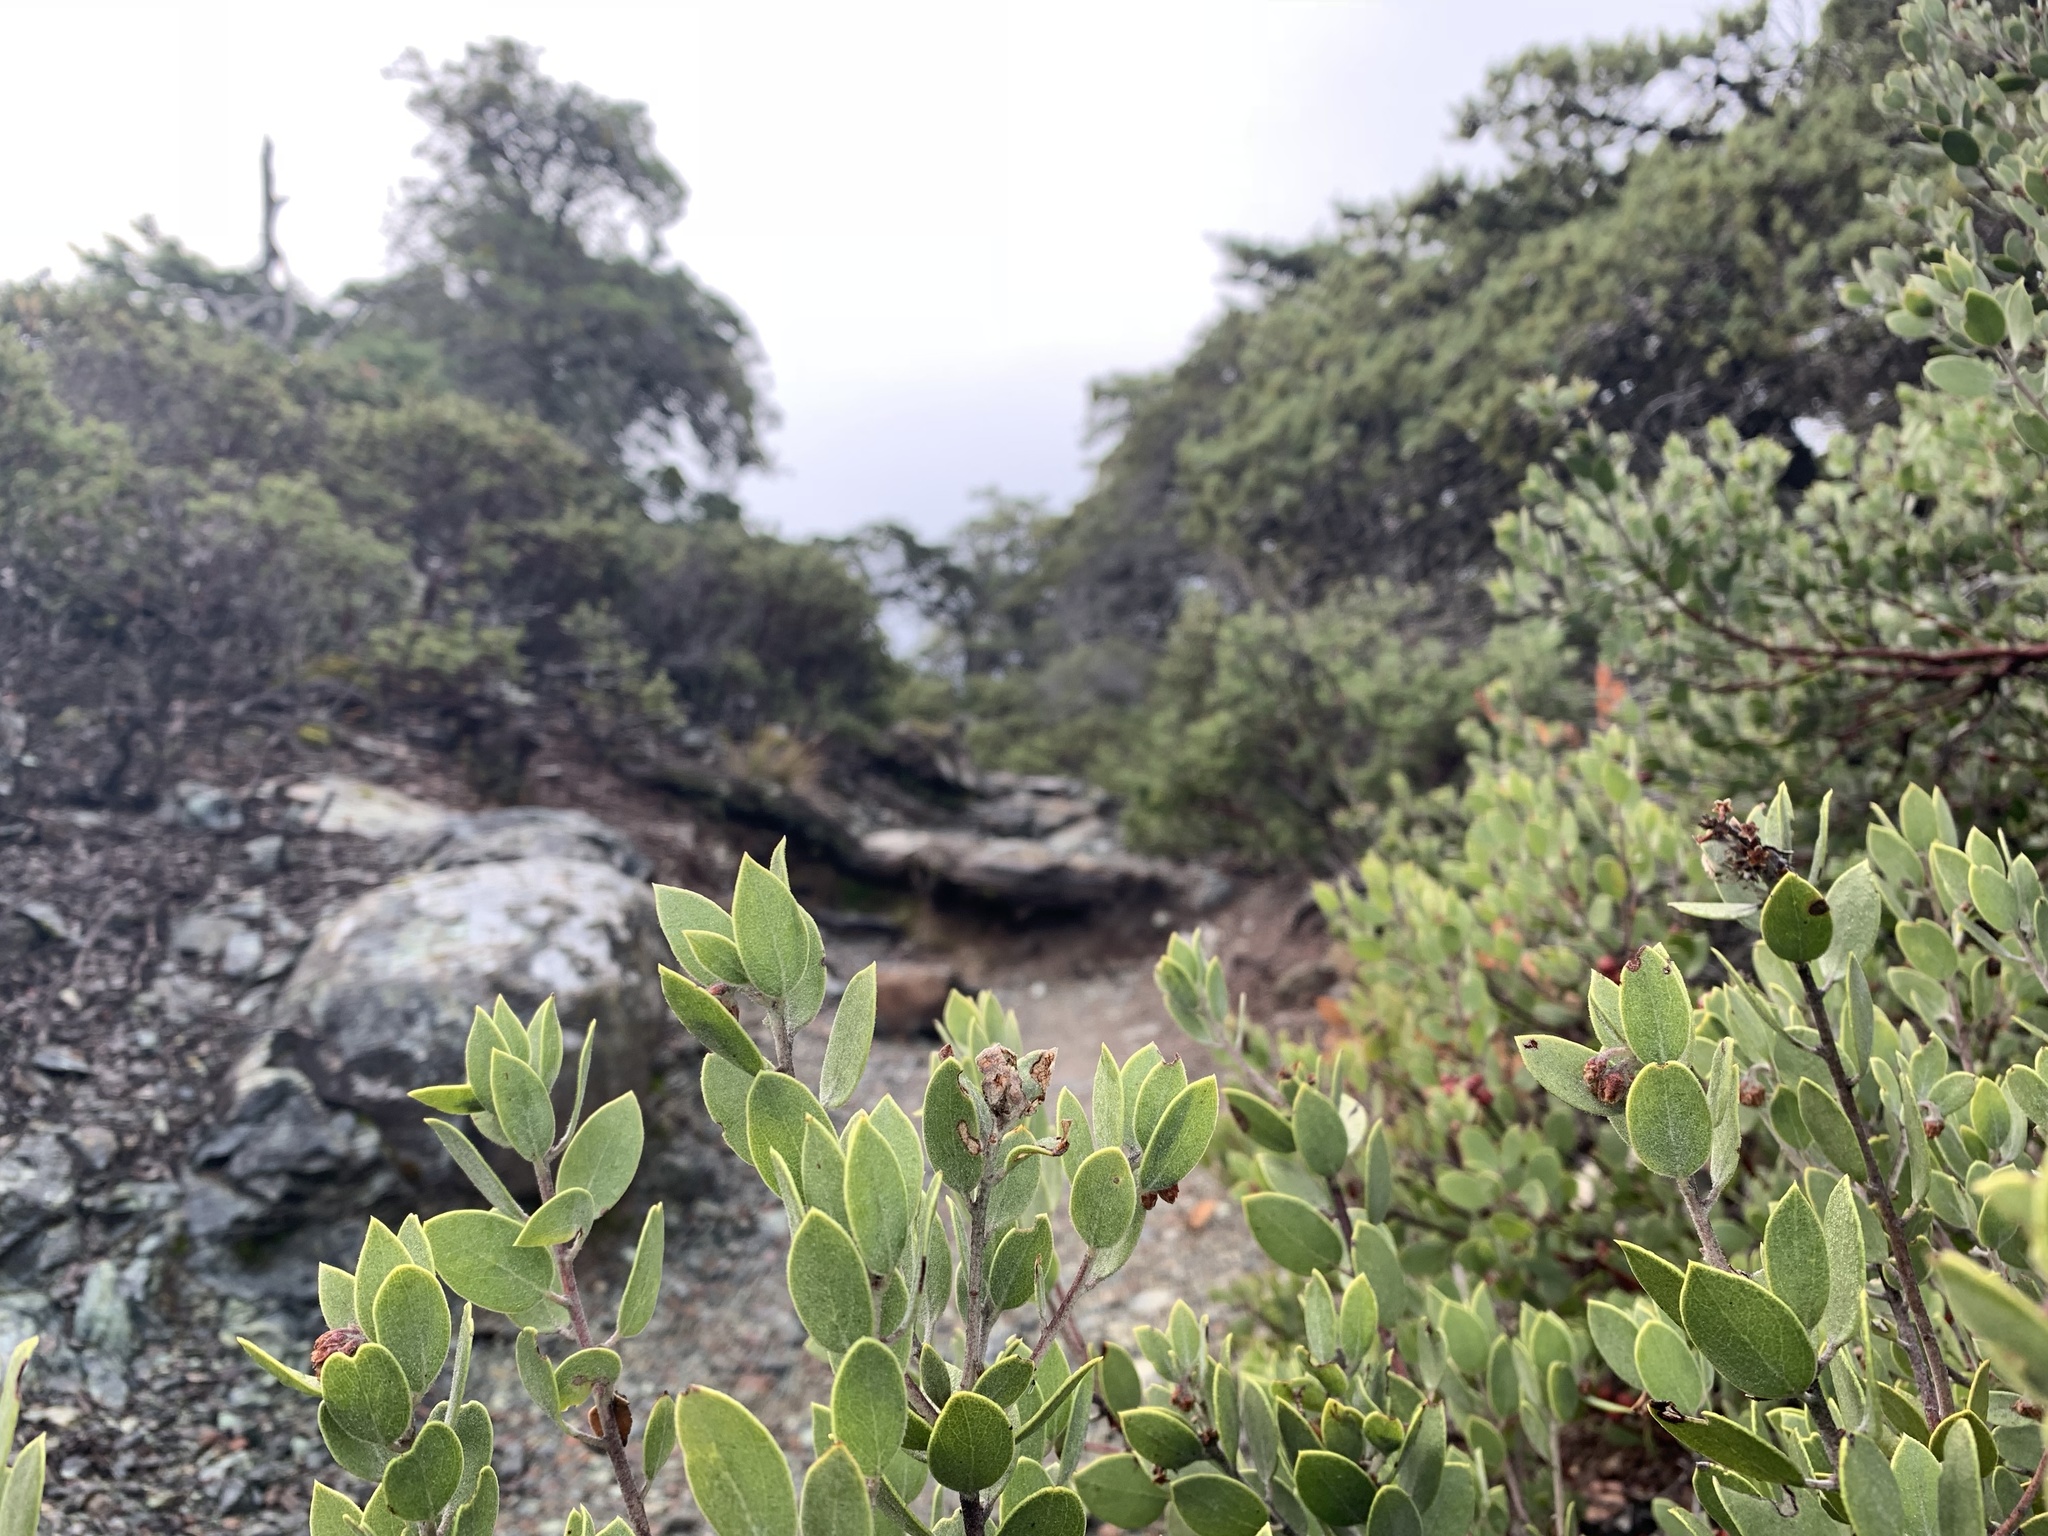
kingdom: Plantae
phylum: Tracheophyta
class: Magnoliopsida
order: Ericales
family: Ericaceae
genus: Arctostaphylos
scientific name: Arctostaphylos montana
